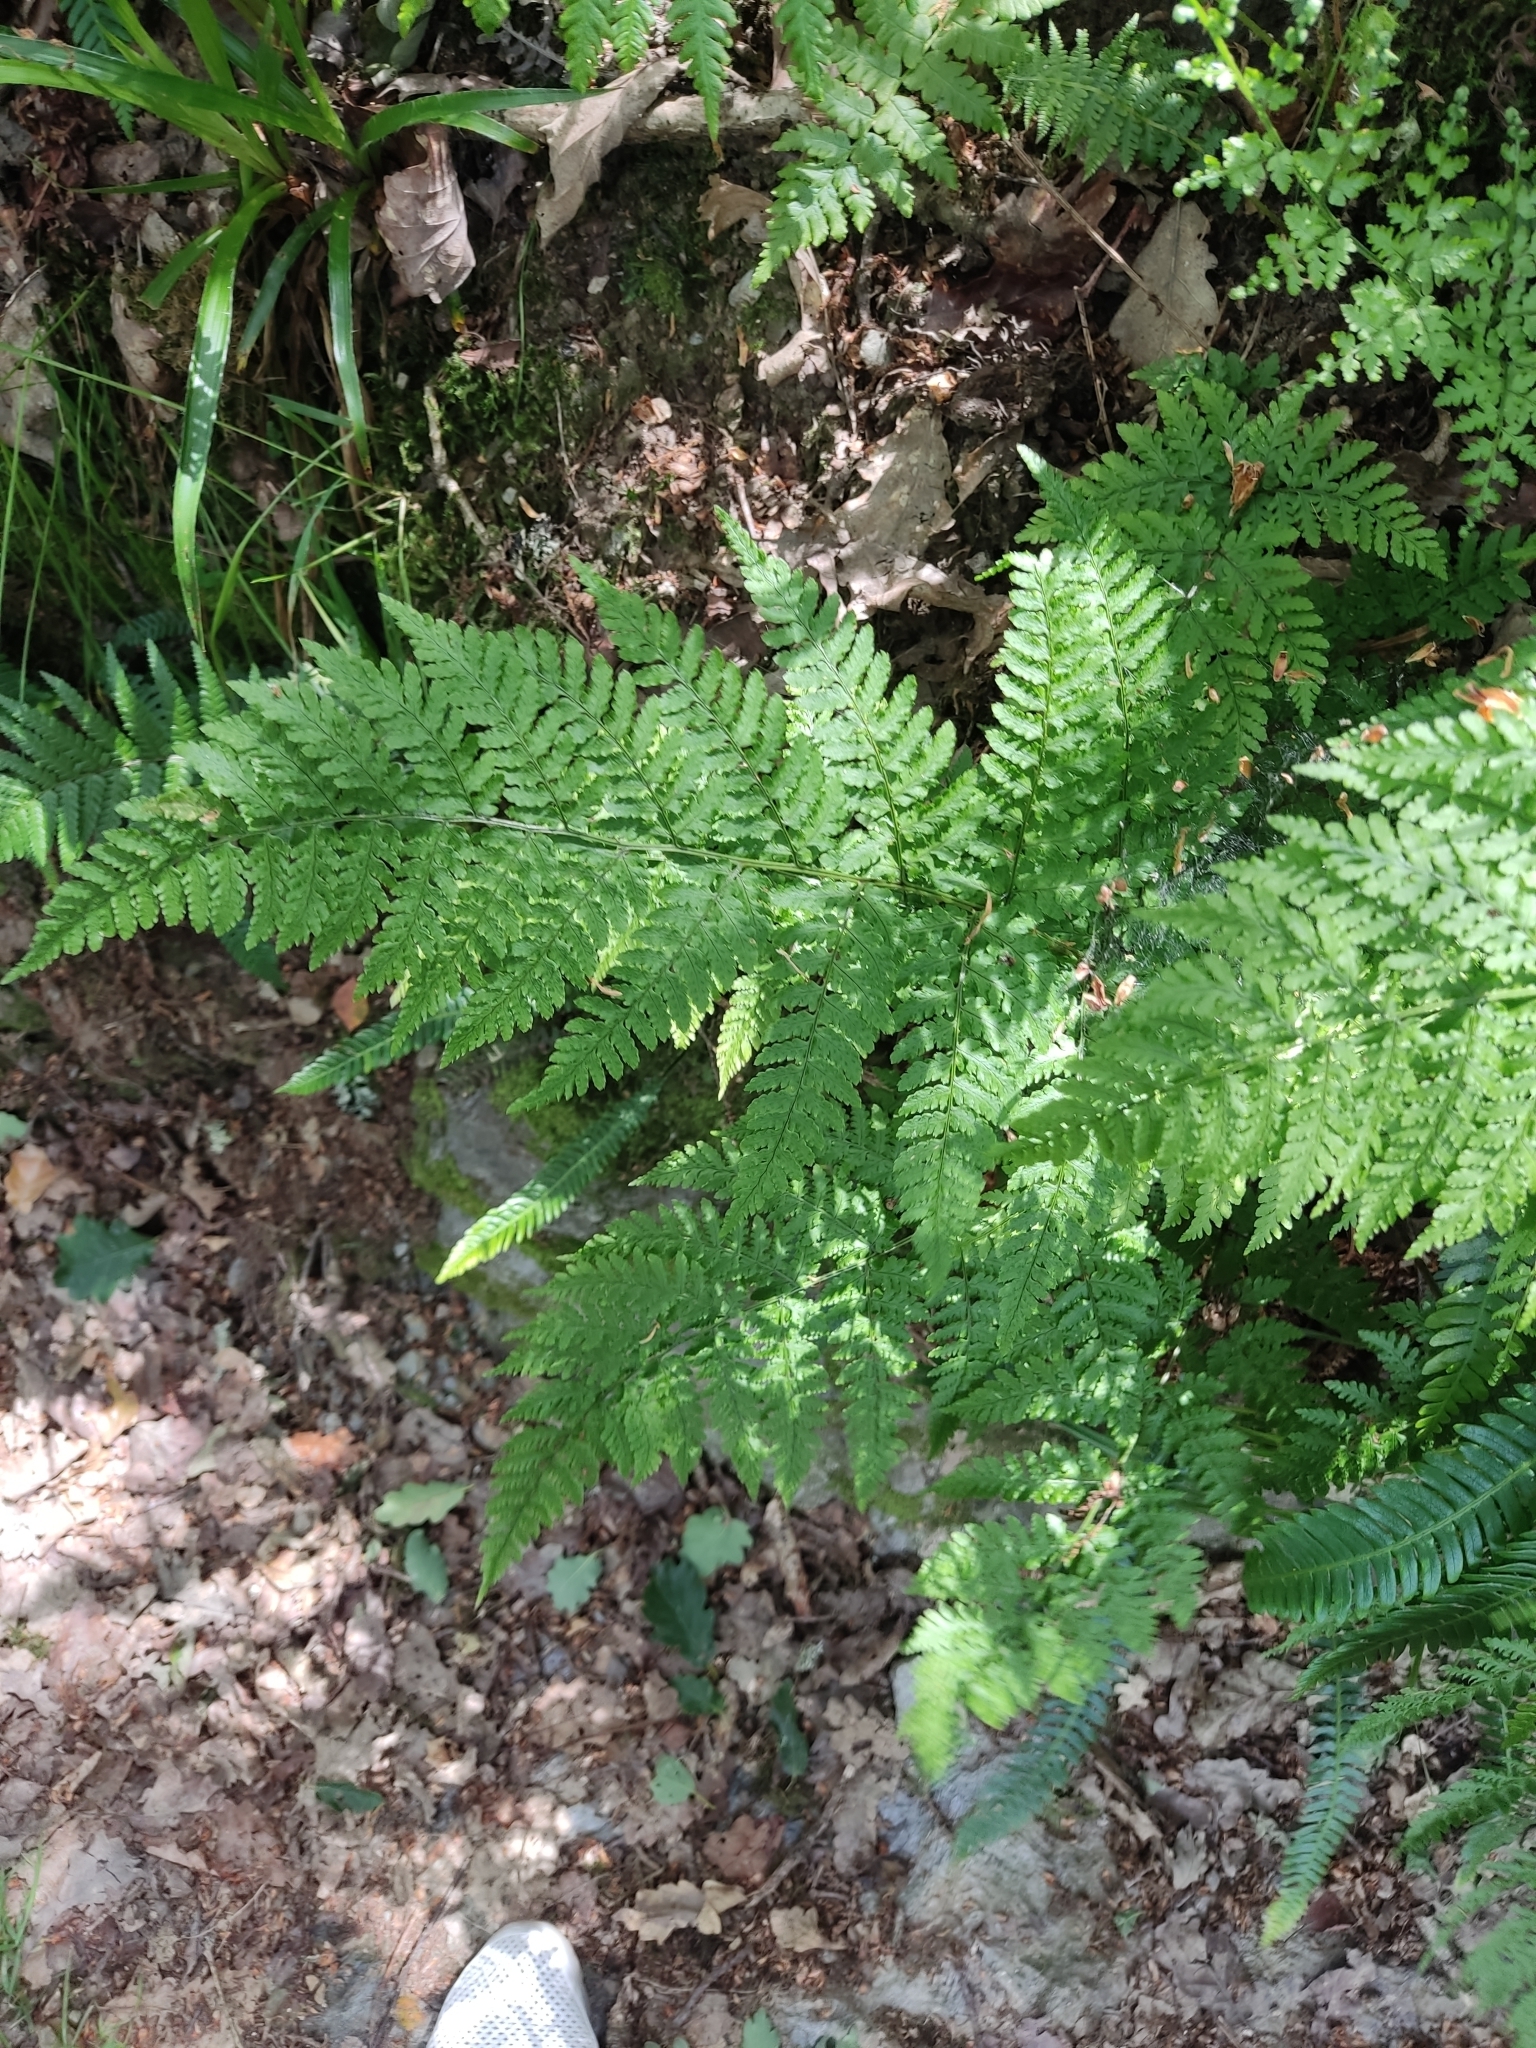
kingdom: Plantae
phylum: Tracheophyta
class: Polypodiopsida
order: Polypodiales
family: Dryopteridaceae
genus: Dryopteris
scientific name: Dryopteris aemula
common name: Hay-scented buckler-fern
